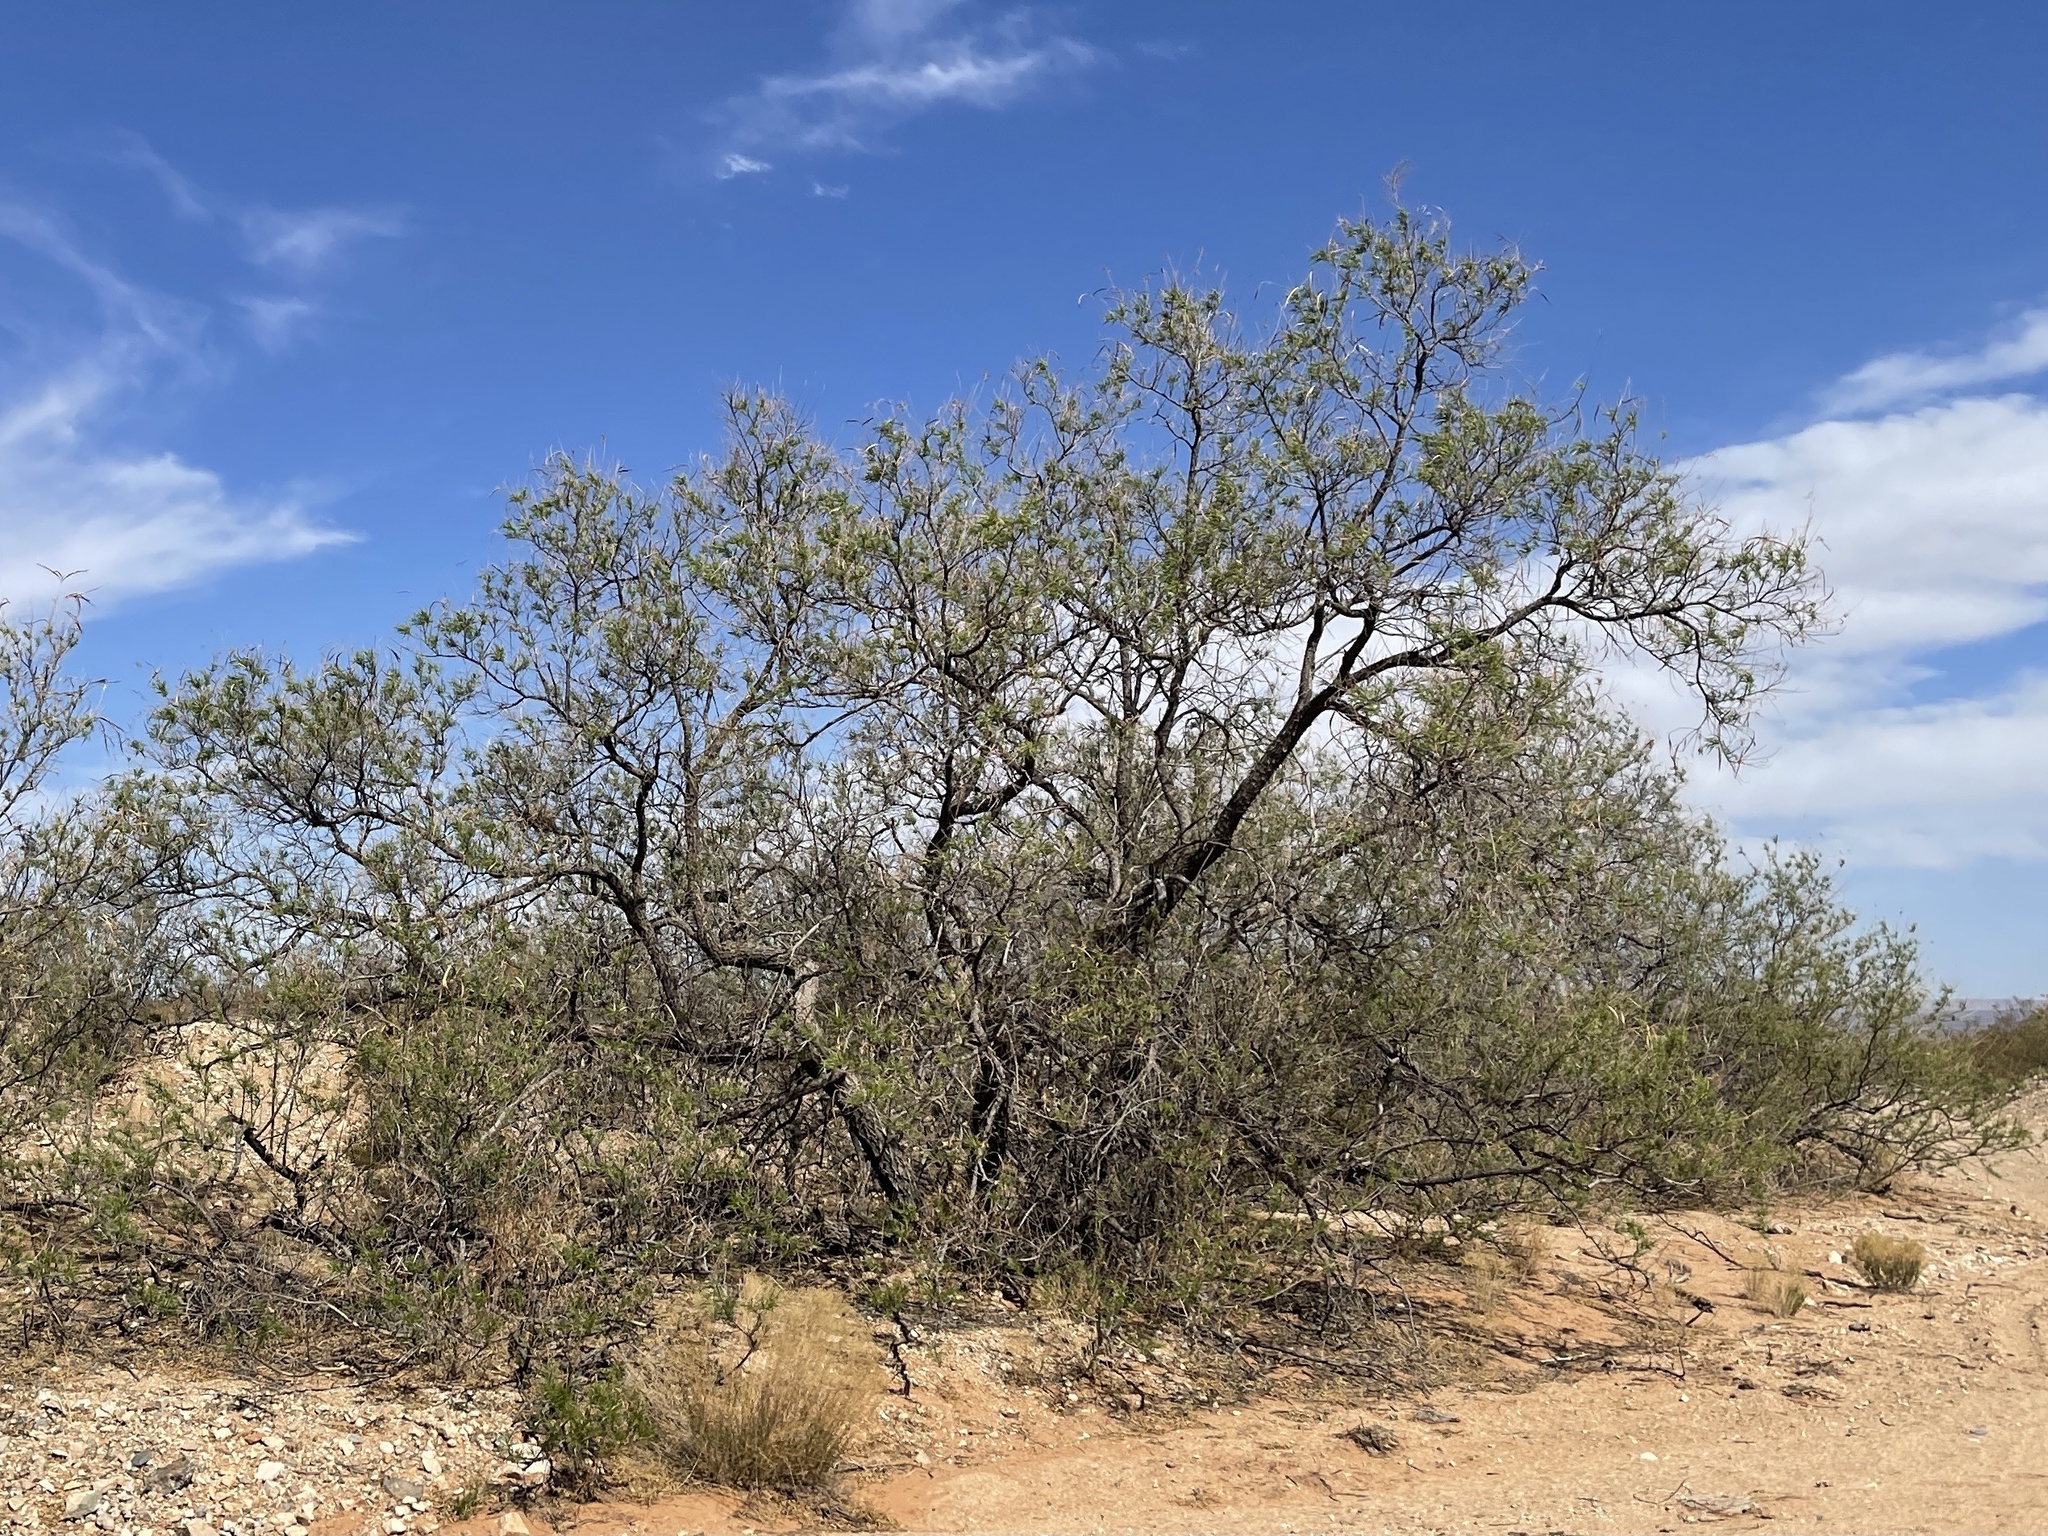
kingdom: Plantae
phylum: Tracheophyta
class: Magnoliopsida
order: Lamiales
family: Bignoniaceae
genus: Chilopsis
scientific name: Chilopsis linearis
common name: Desert-willow
